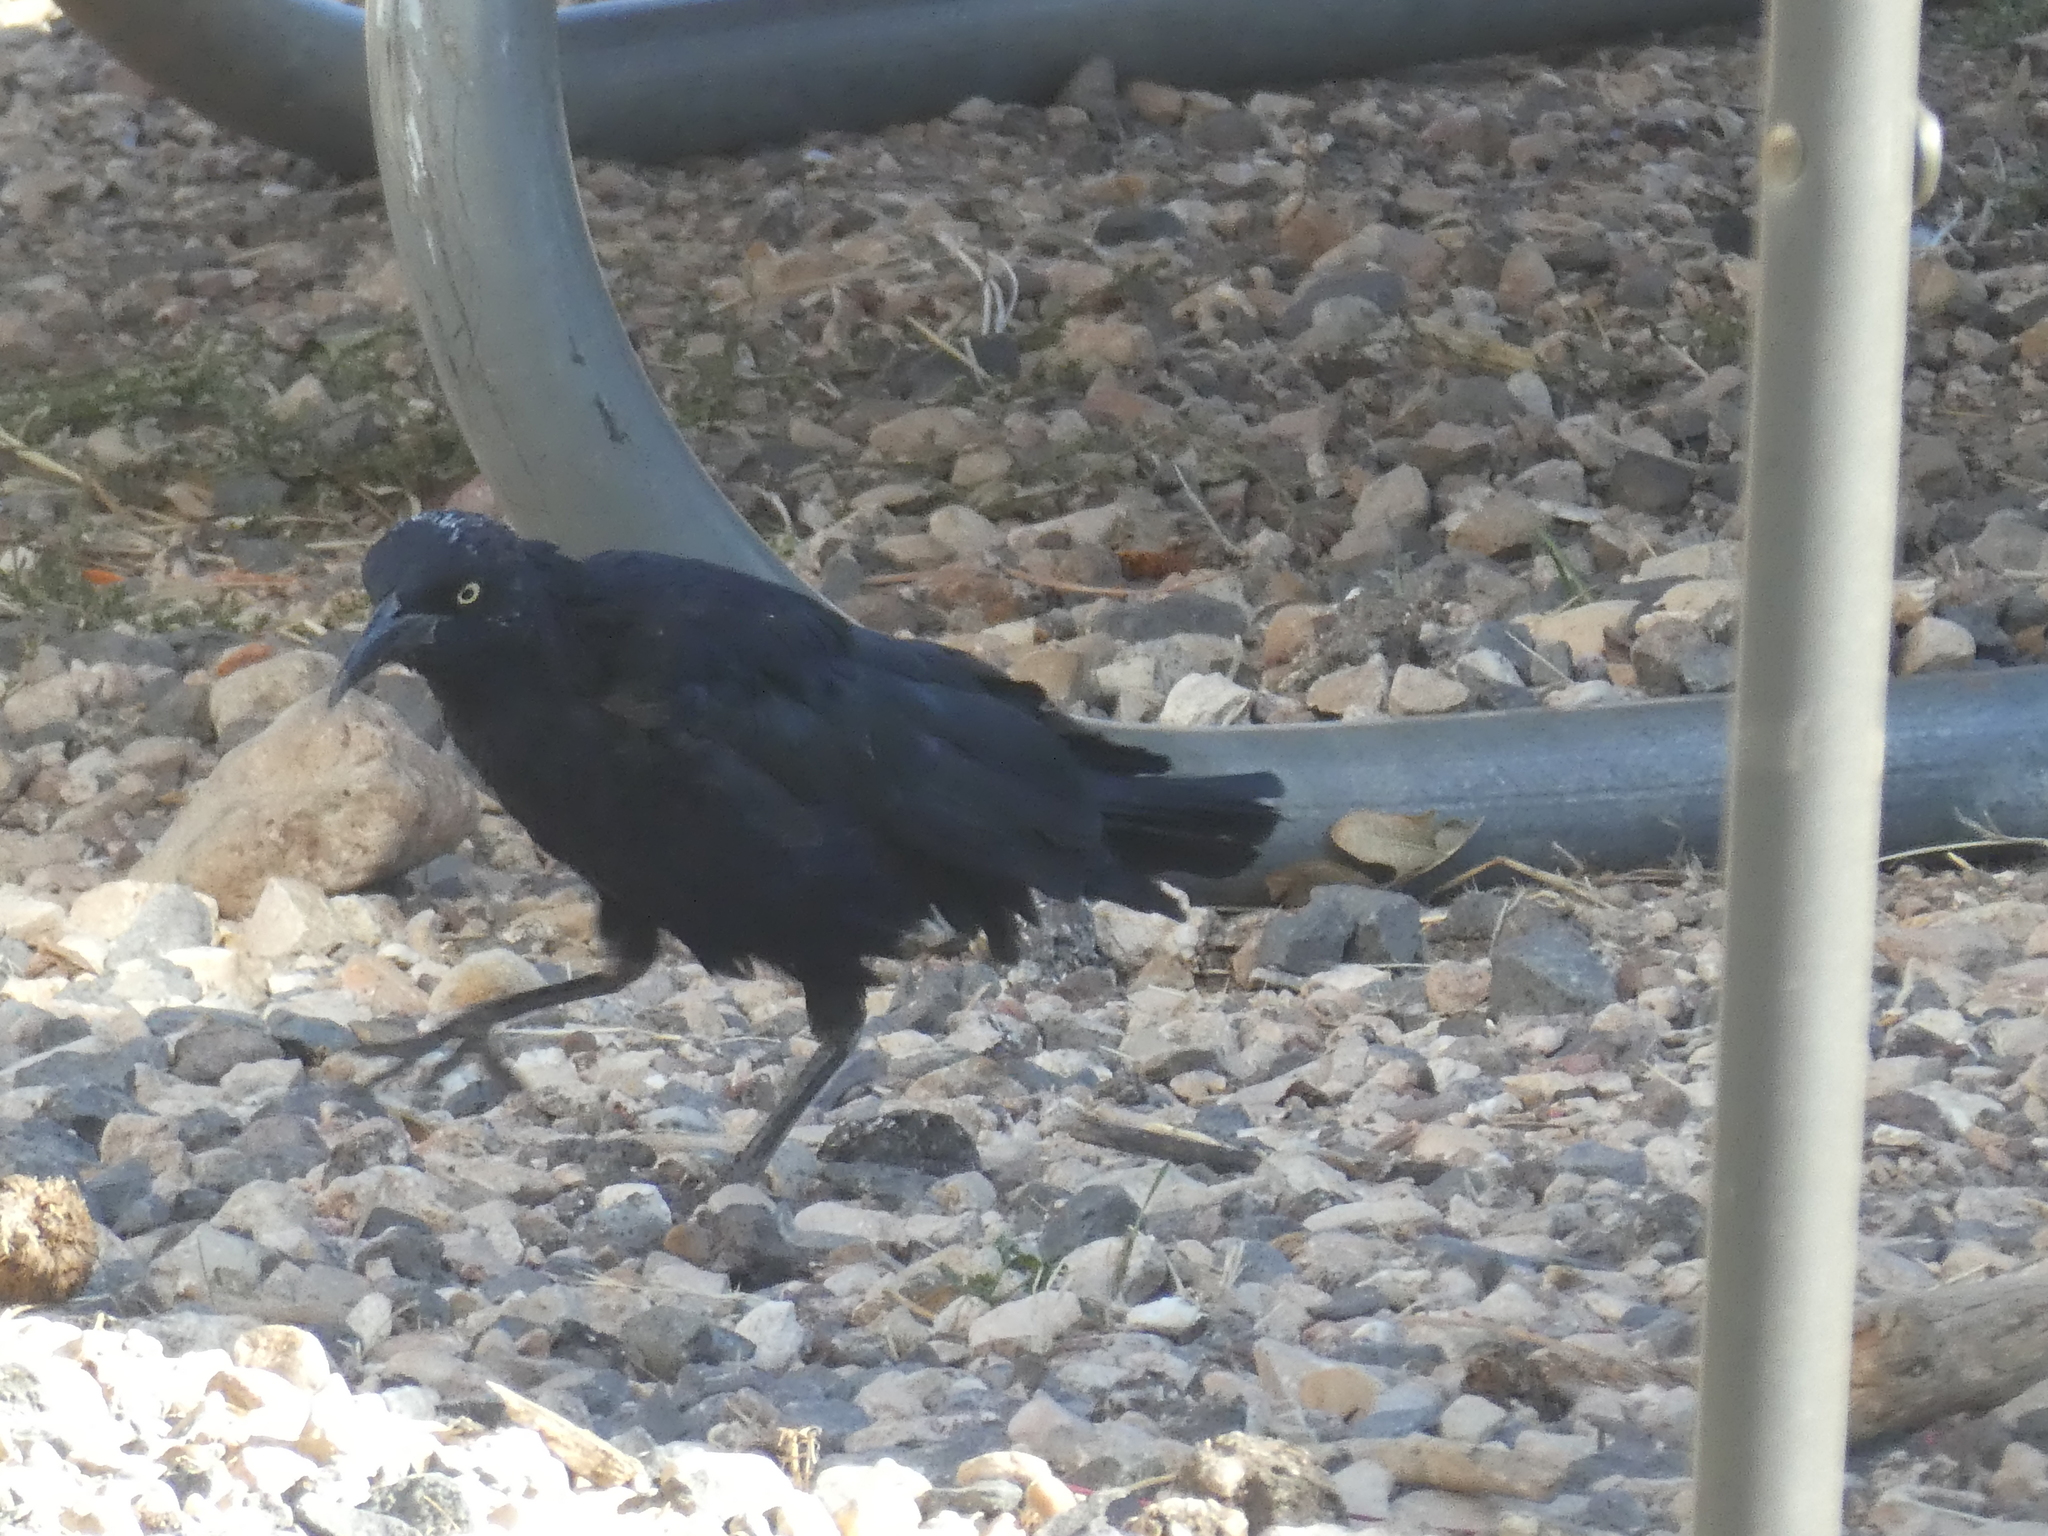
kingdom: Animalia
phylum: Chordata
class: Aves
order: Passeriformes
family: Icteridae
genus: Quiscalus
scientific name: Quiscalus mexicanus
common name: Great-tailed grackle
